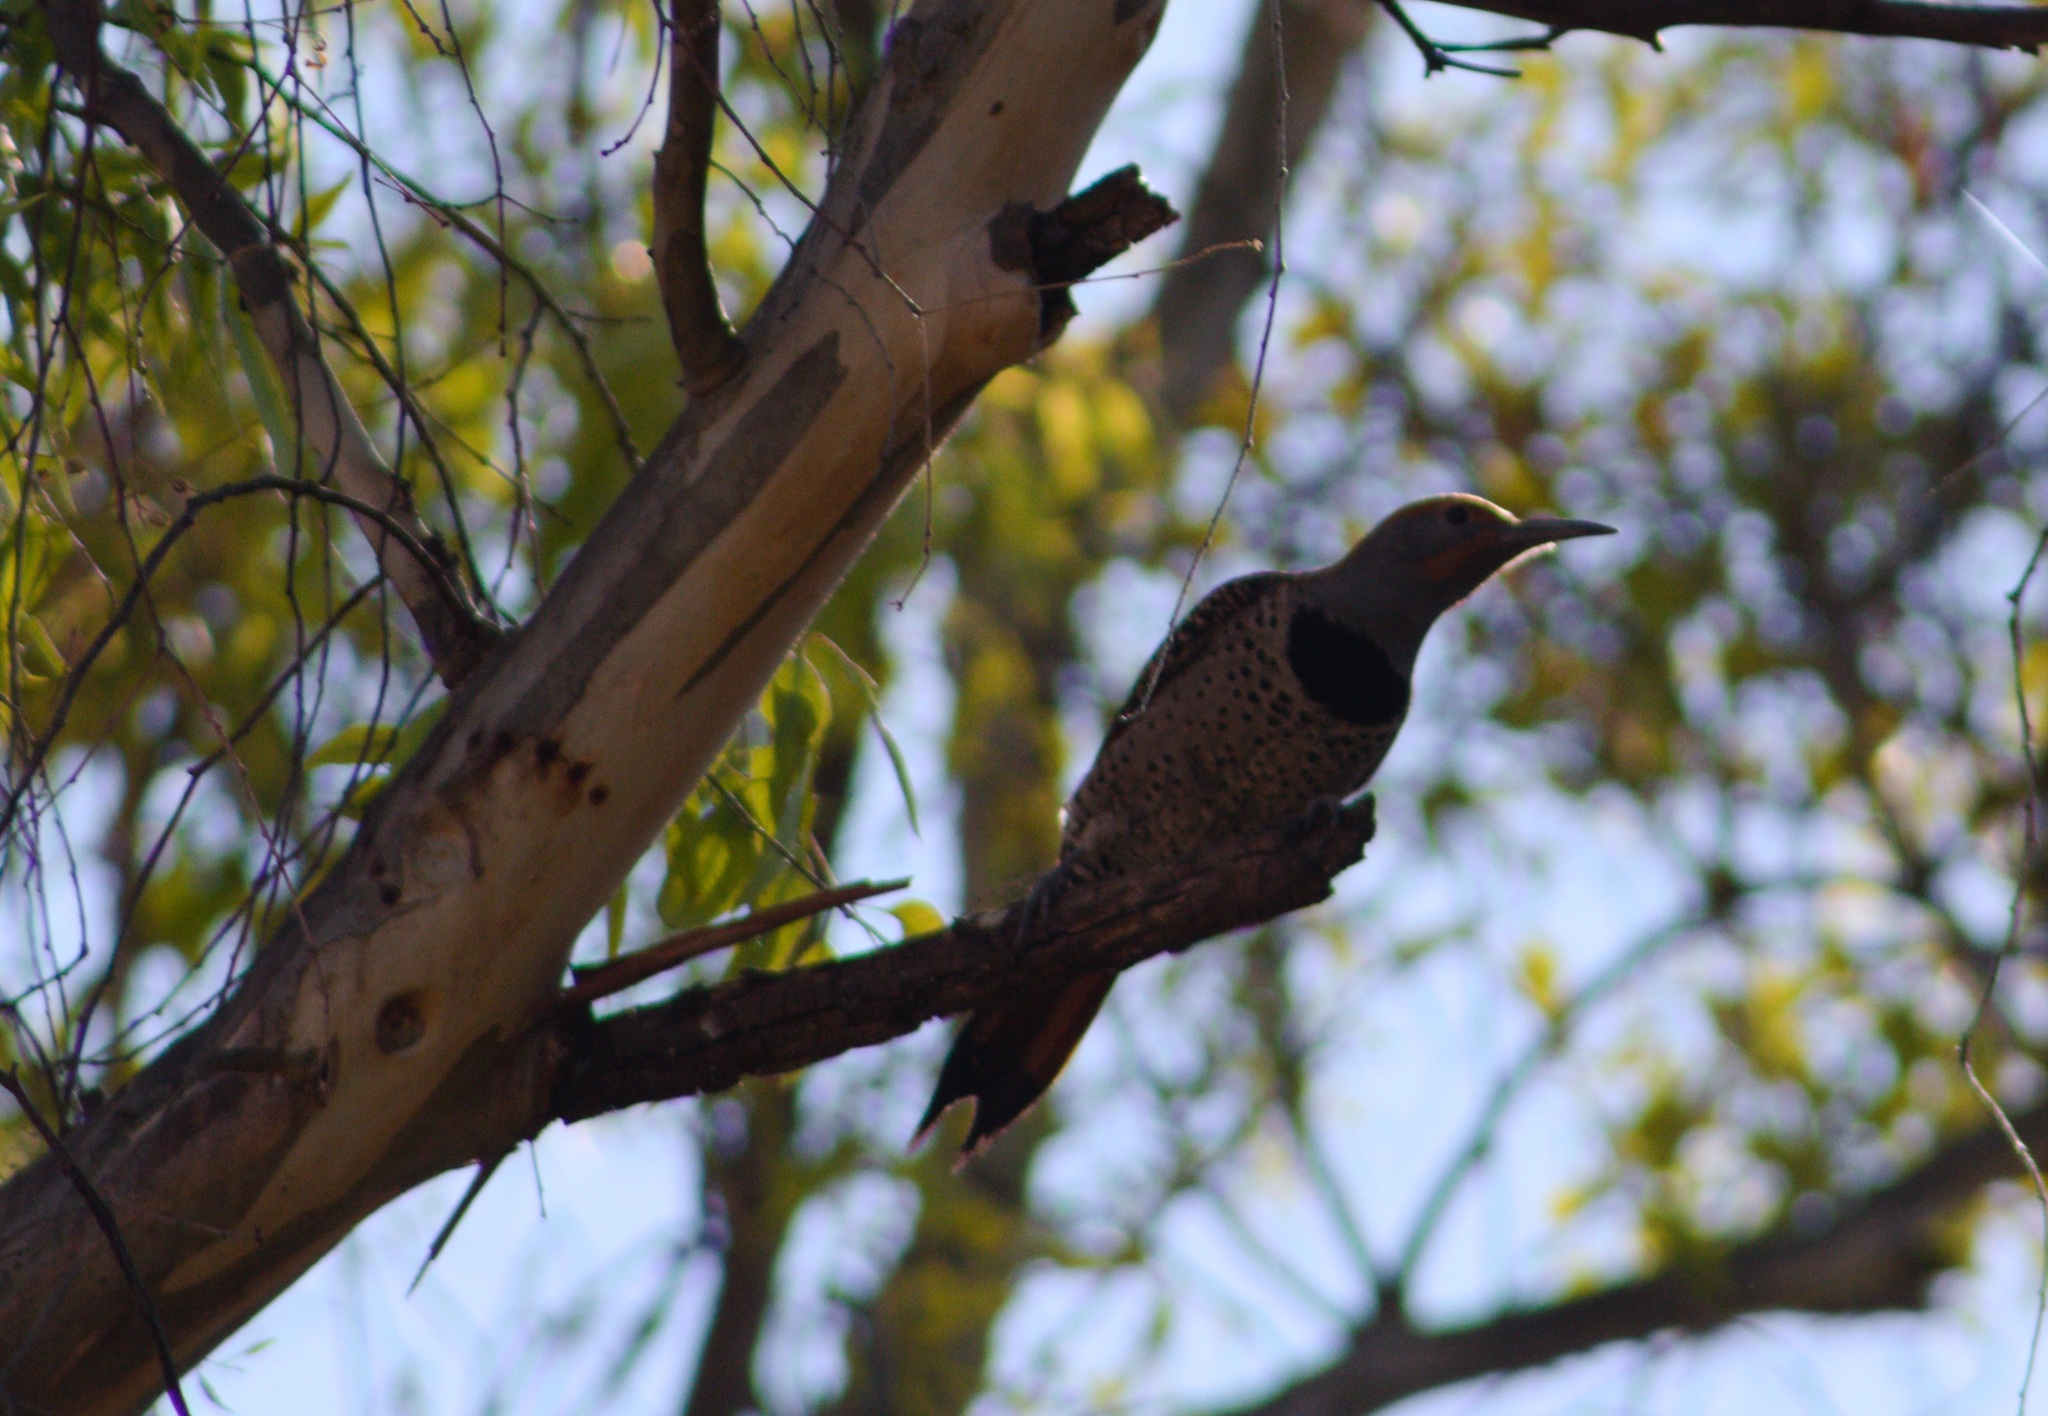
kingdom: Animalia
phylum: Chordata
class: Aves
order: Piciformes
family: Picidae
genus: Colaptes
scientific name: Colaptes auratus
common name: Northern flicker
